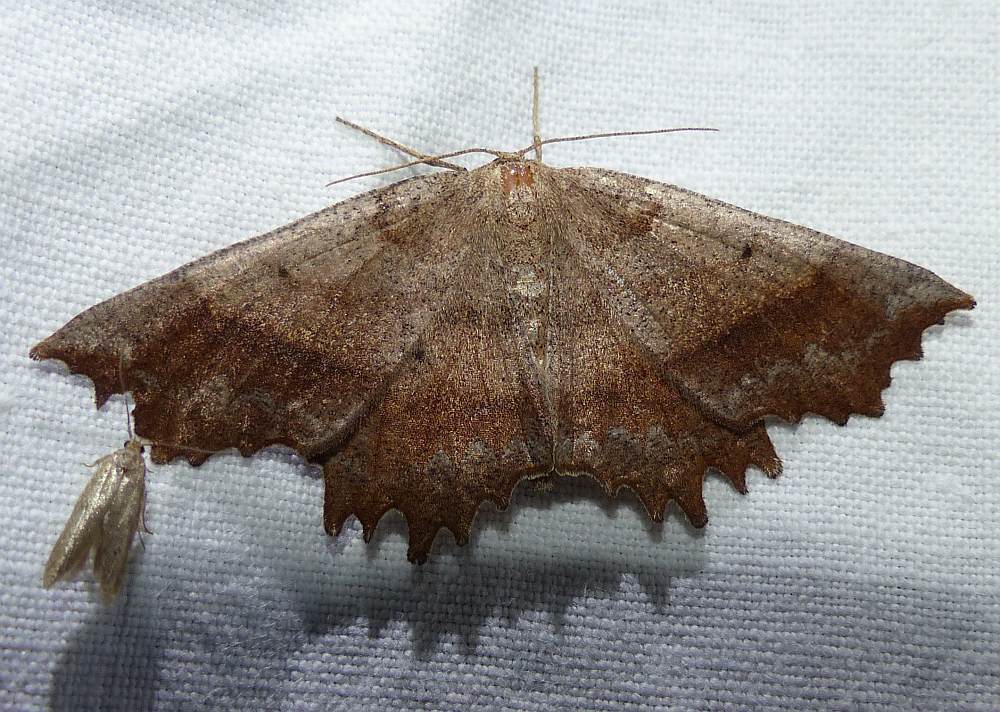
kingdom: Animalia
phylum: Arthropoda
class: Insecta
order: Lepidoptera
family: Geometridae
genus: Euchlaena
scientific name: Euchlaena effecta
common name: Effective euchlaena moth
